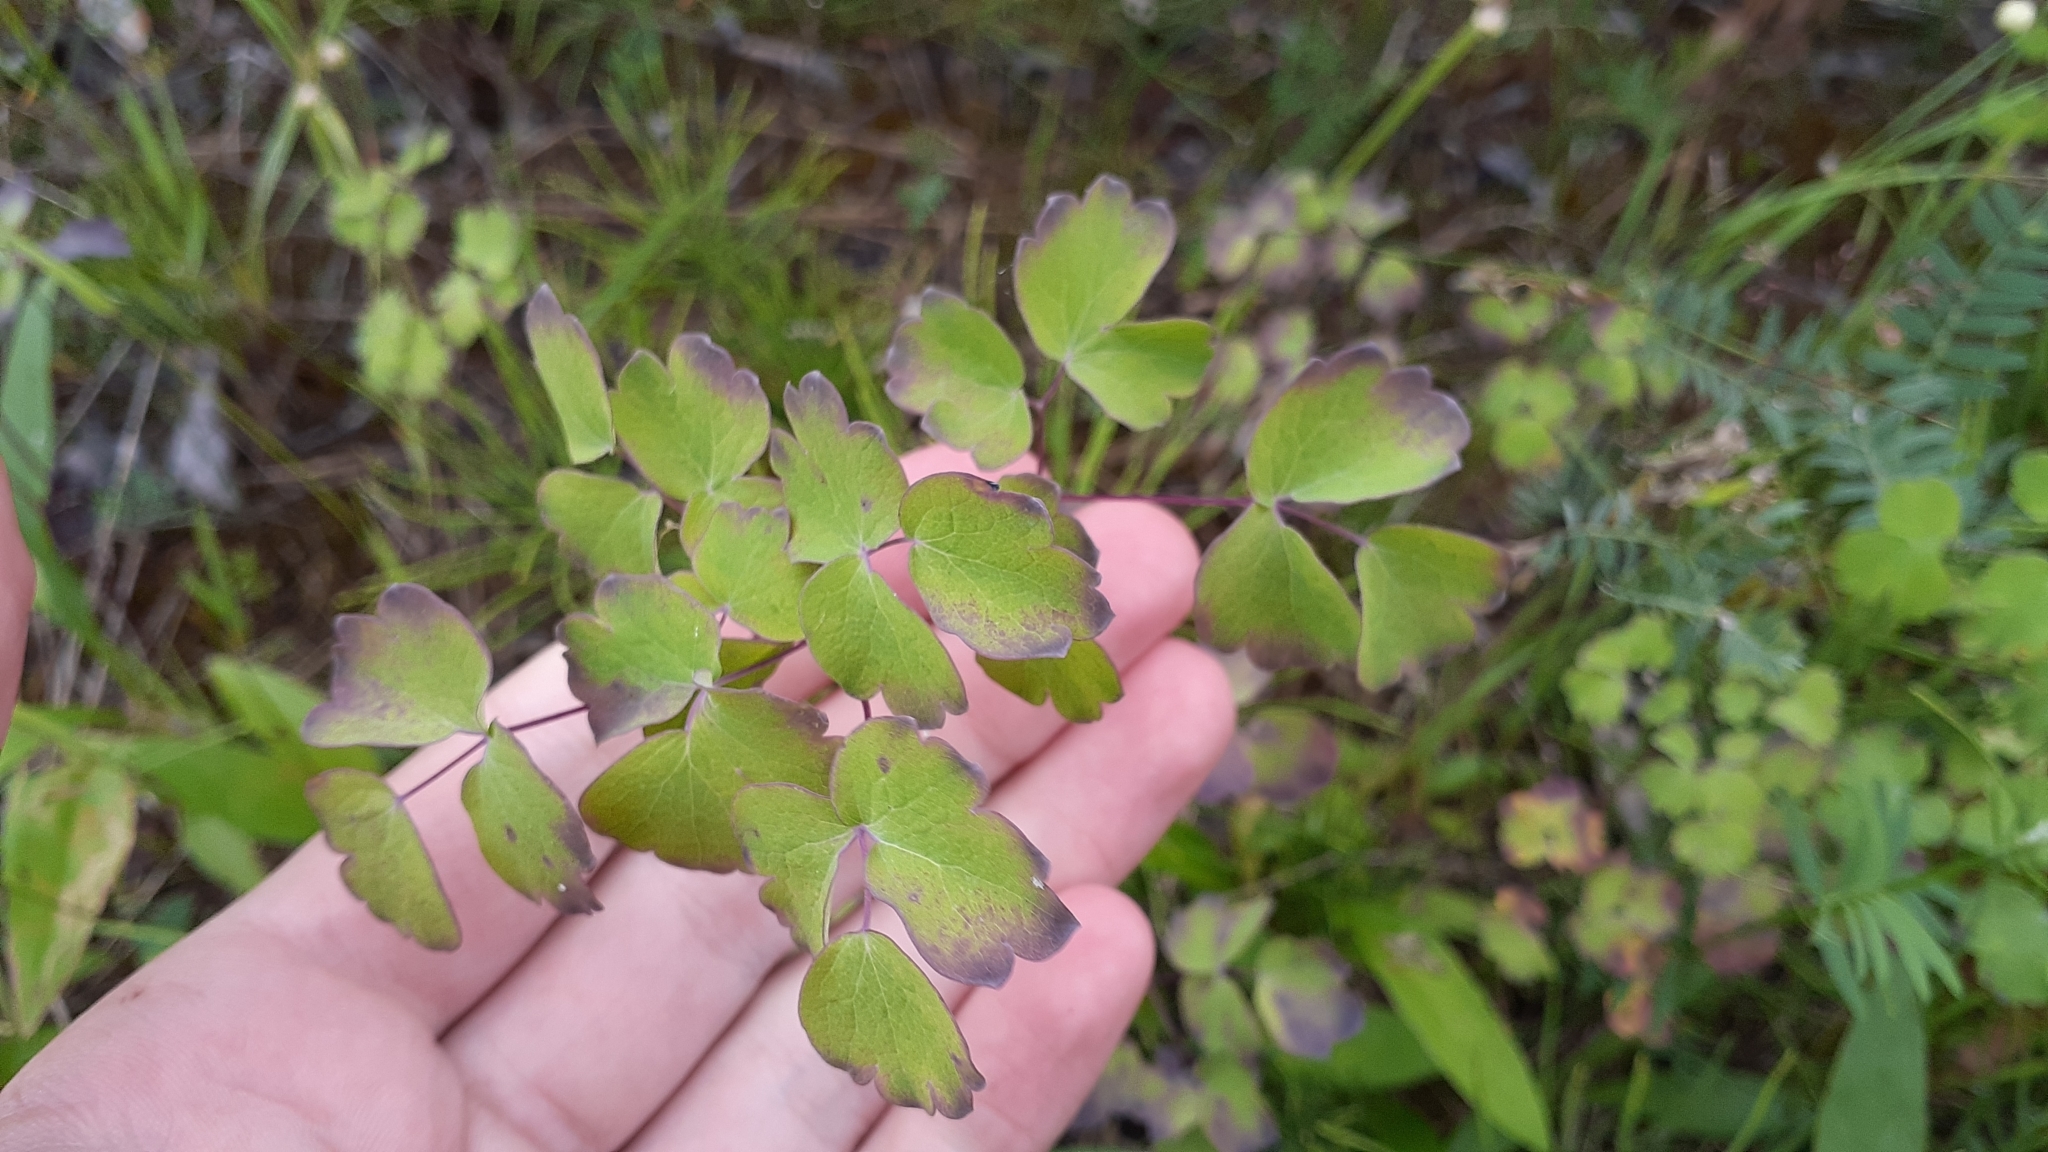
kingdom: Plantae
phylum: Tracheophyta
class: Magnoliopsida
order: Ranunculales
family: Ranunculaceae
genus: Thalictrum
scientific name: Thalictrum venulosum
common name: Early meadow-rue
